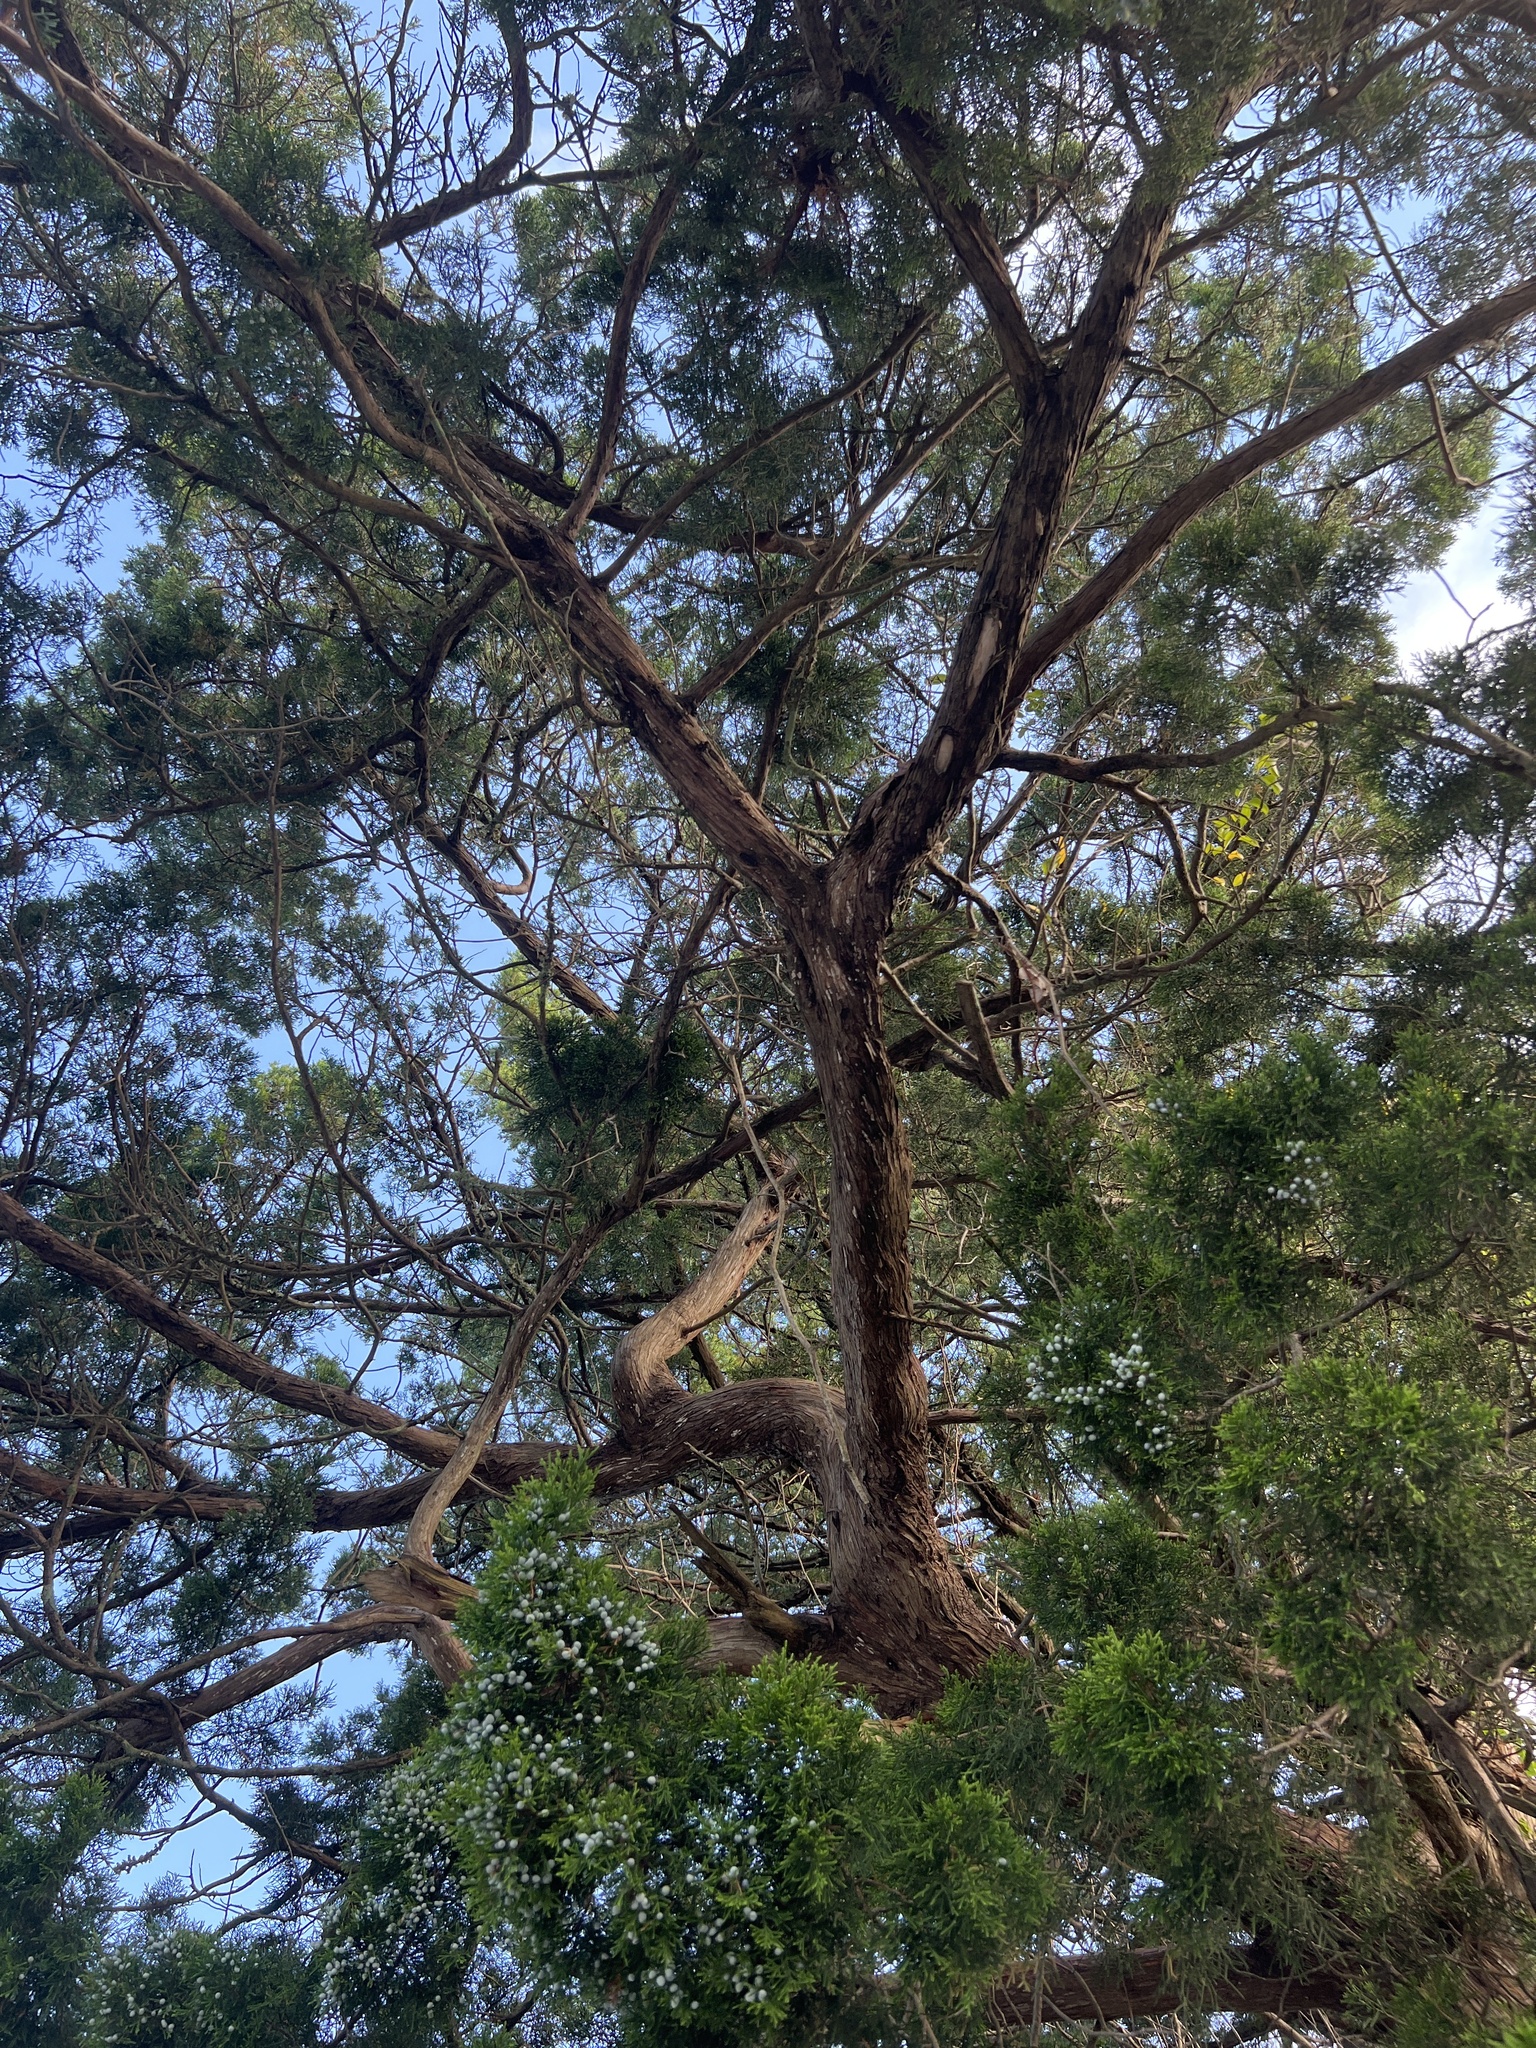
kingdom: Plantae
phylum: Tracheophyta
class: Pinopsida
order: Pinales
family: Cupressaceae
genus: Juniperus
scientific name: Juniperus virginiana
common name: Red juniper
